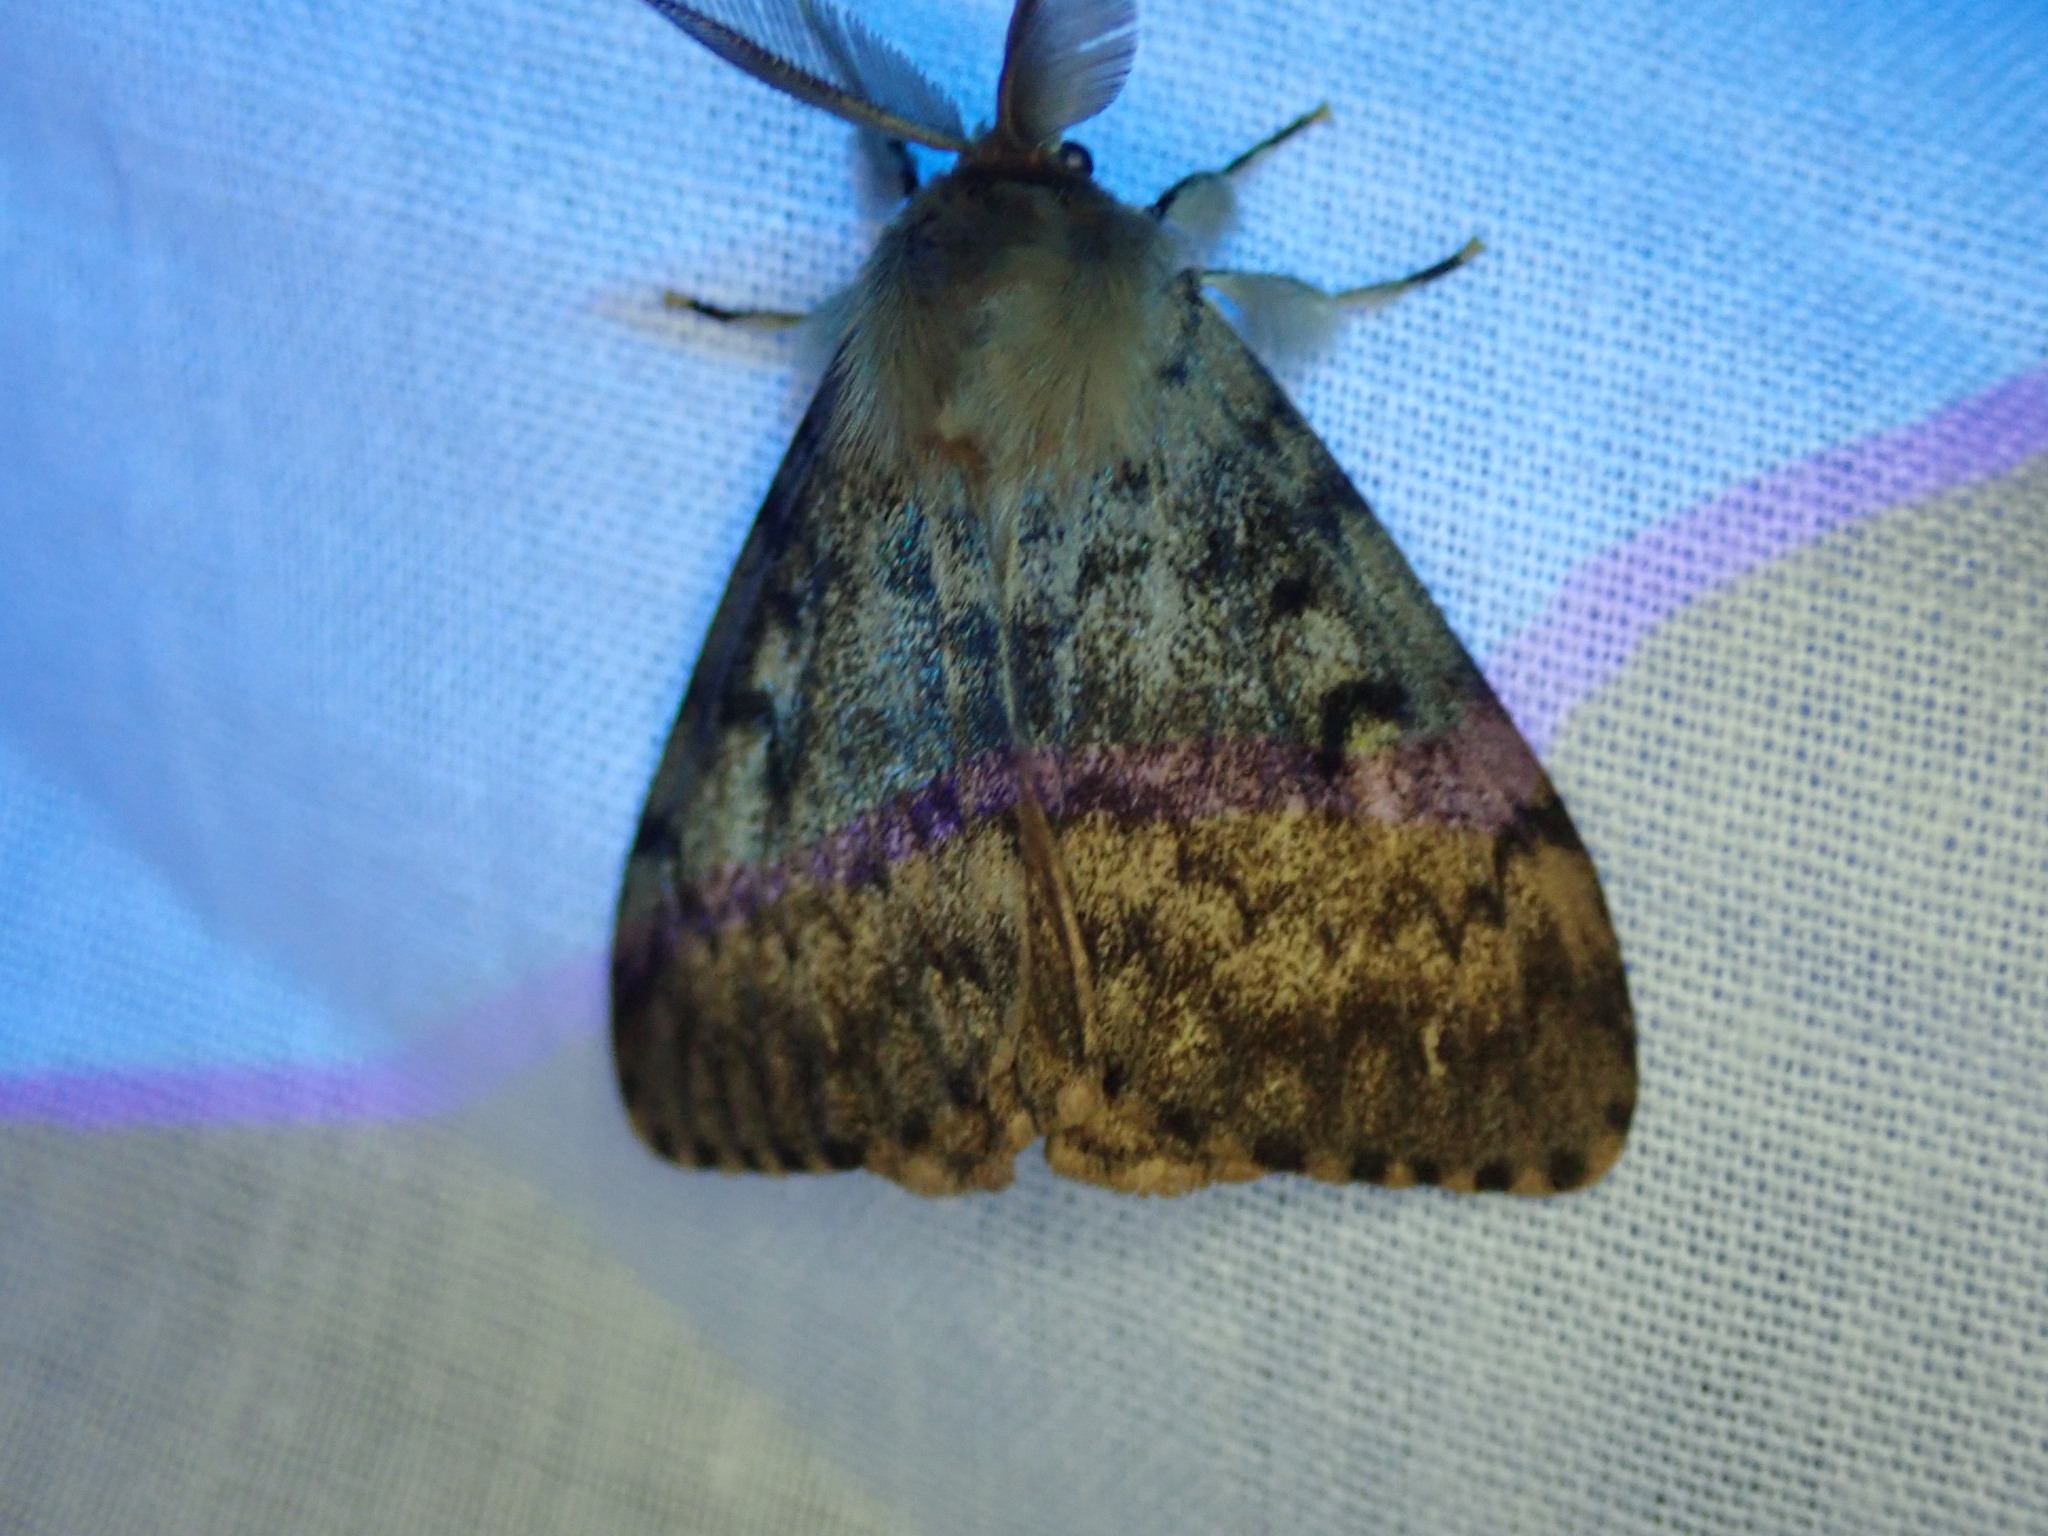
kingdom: Animalia
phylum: Arthropoda
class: Insecta
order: Lepidoptera
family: Erebidae
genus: Lymantria
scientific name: Lymantria dispar
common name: Gypsy moth
